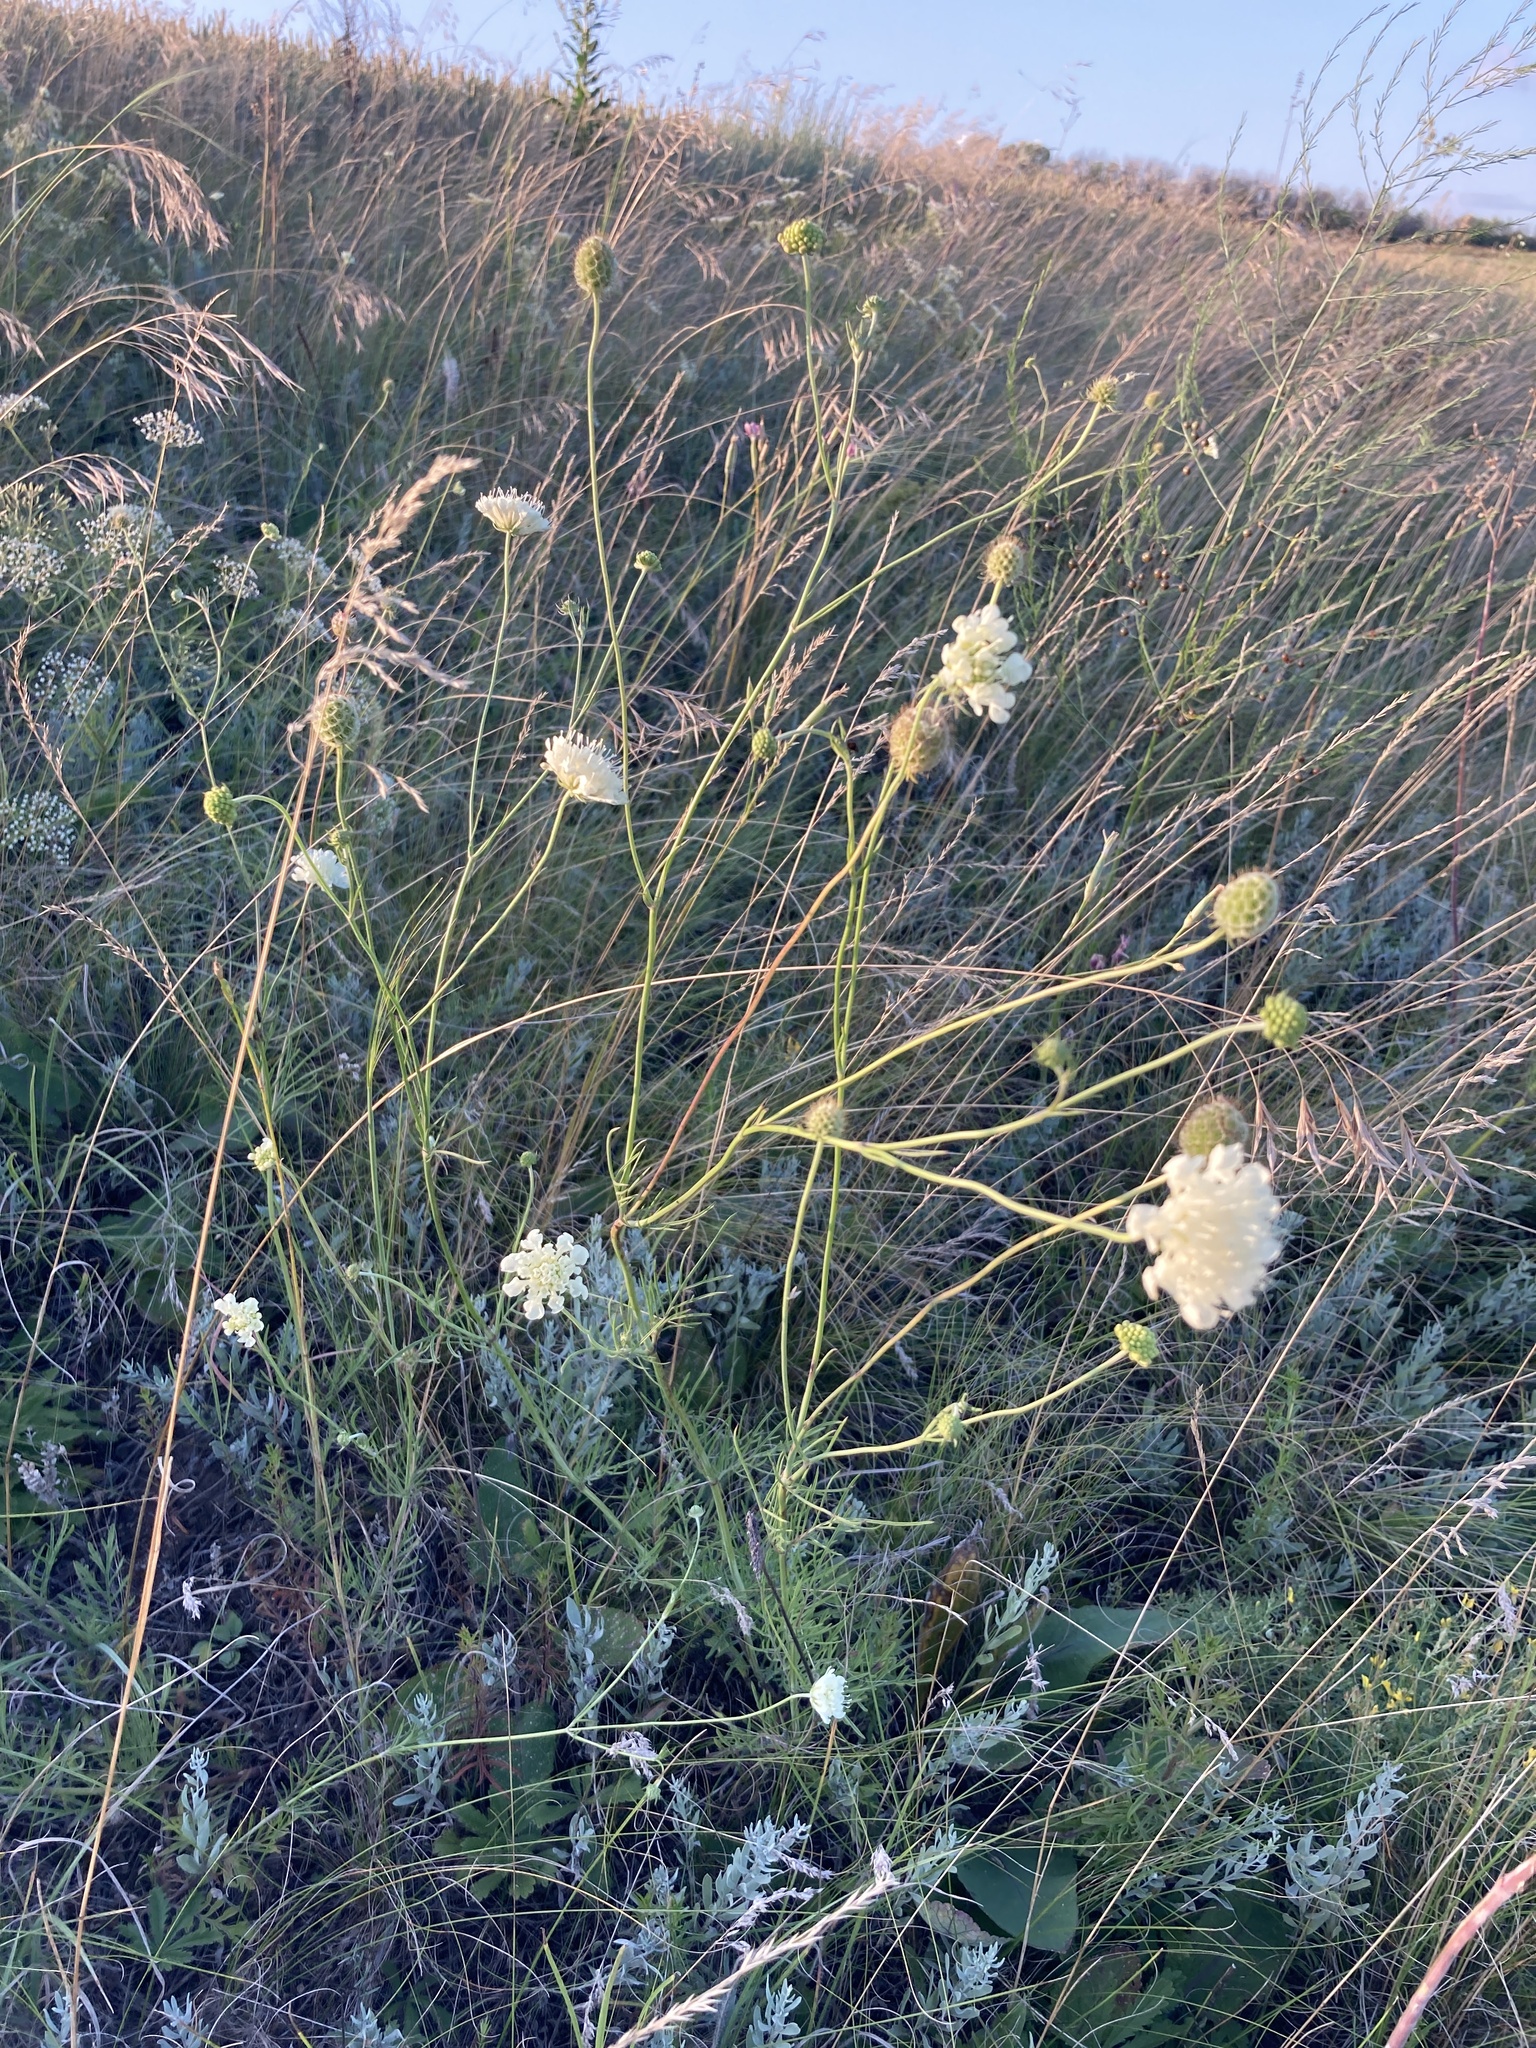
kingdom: Plantae
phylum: Tracheophyta
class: Magnoliopsida
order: Dipsacales
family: Caprifoliaceae
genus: Scabiosa
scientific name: Scabiosa ochroleuca
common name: Cream pincushions
